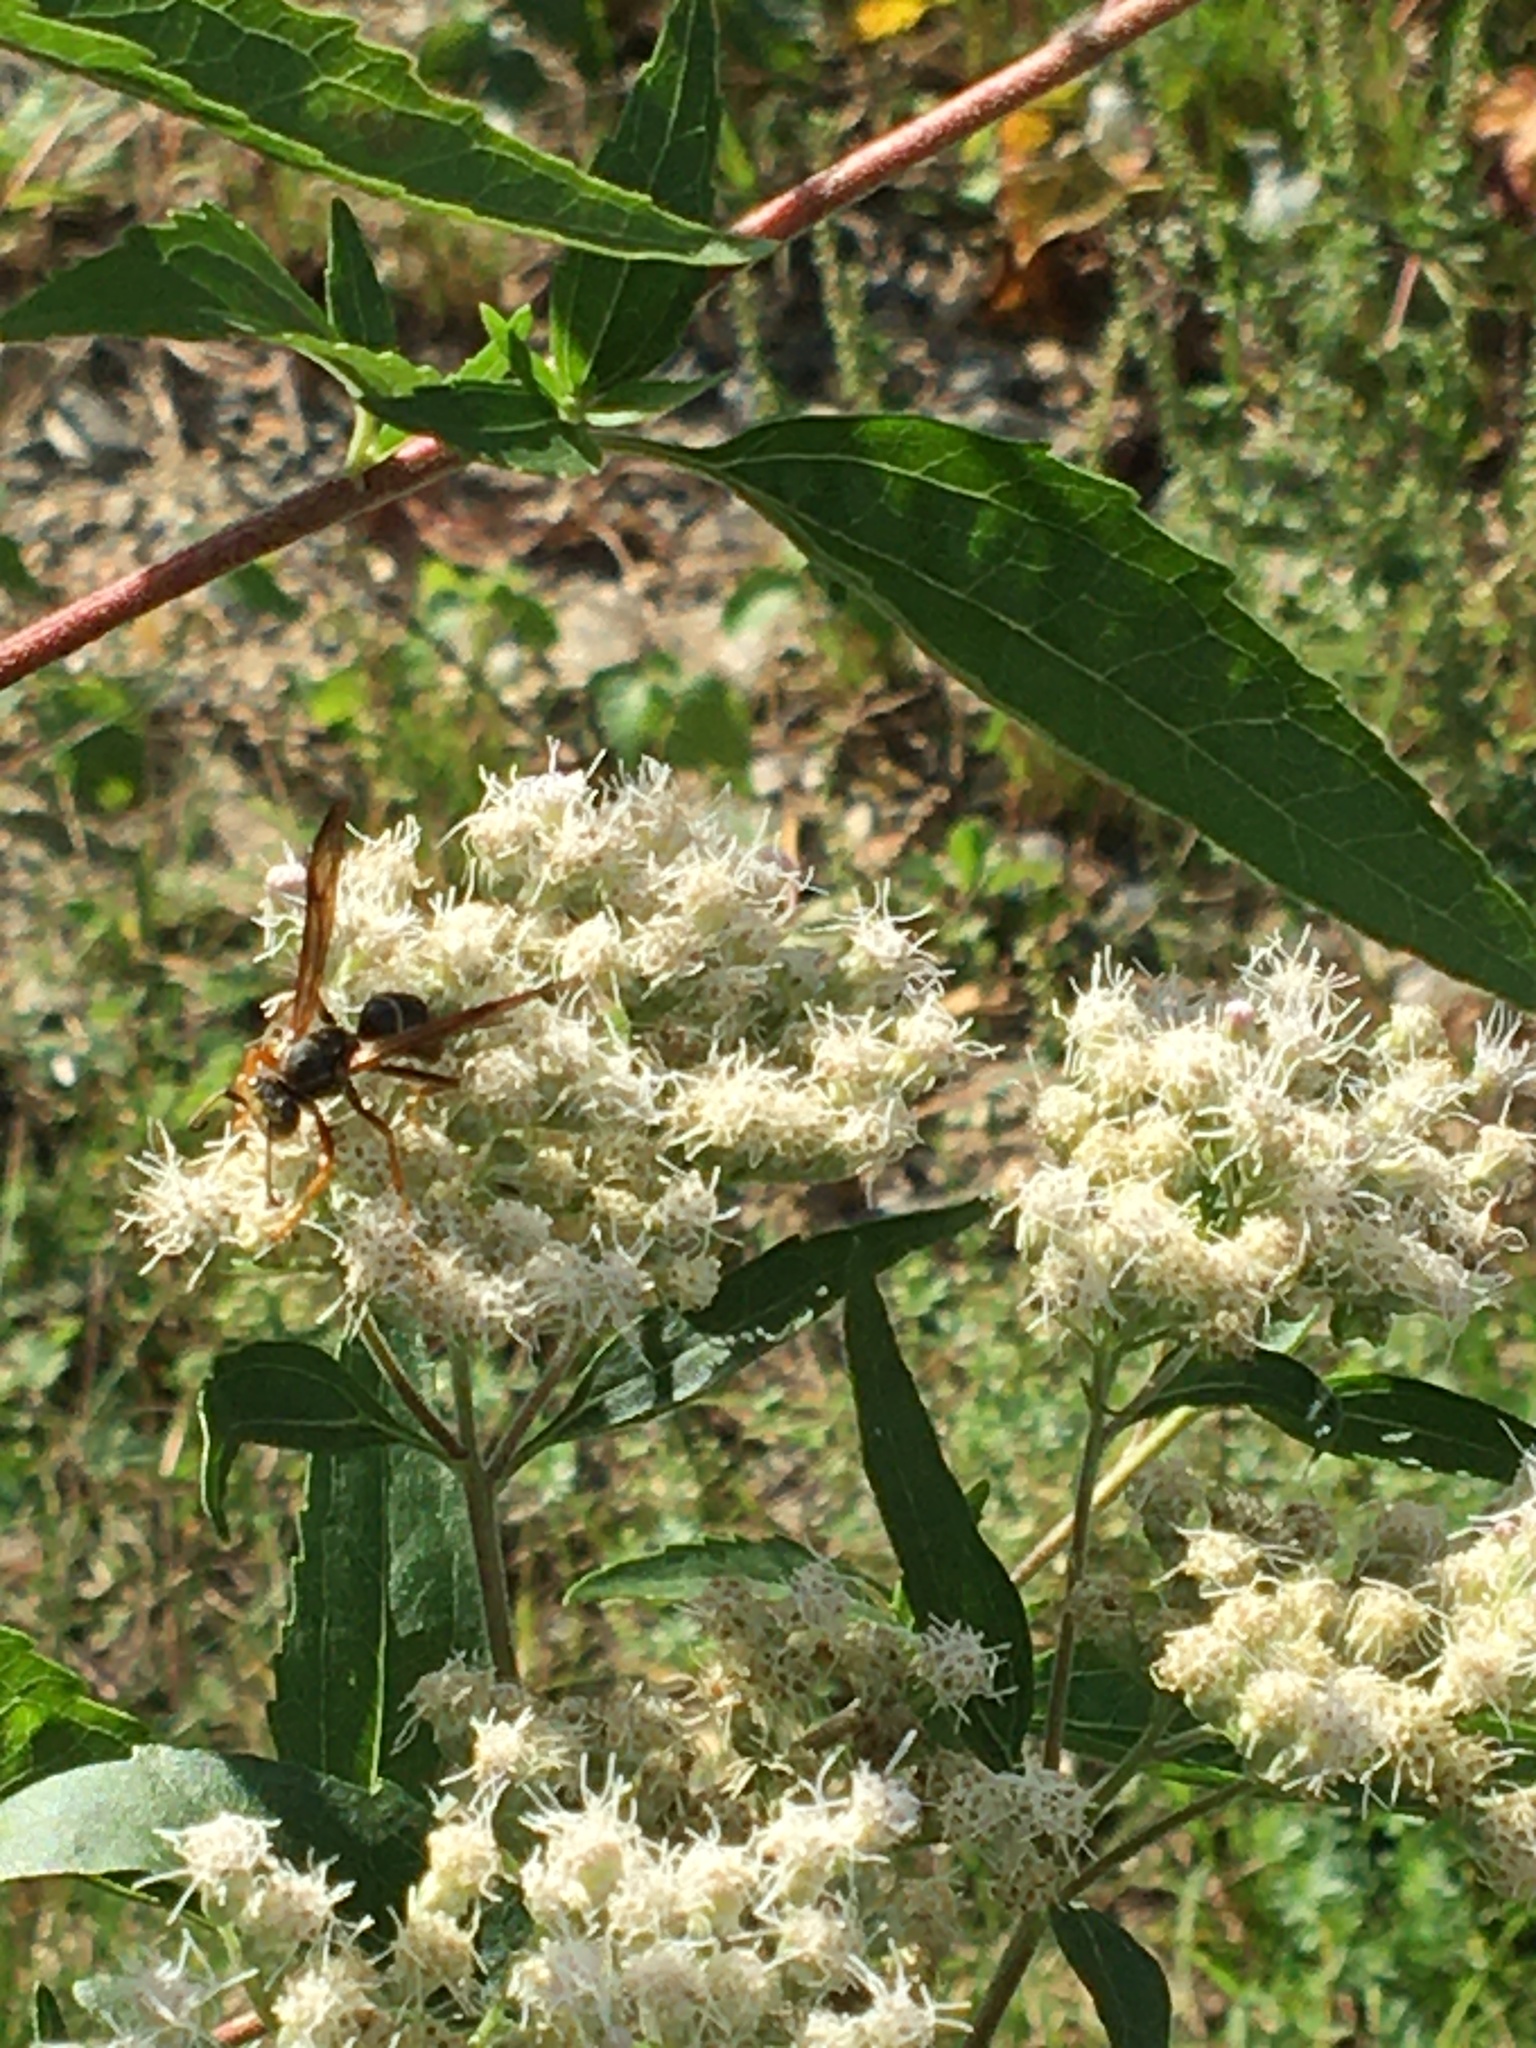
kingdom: Animalia
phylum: Arthropoda
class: Insecta
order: Hymenoptera
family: Eumenidae
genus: Polistes
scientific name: Polistes fuscatus
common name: Dark paper wasp
